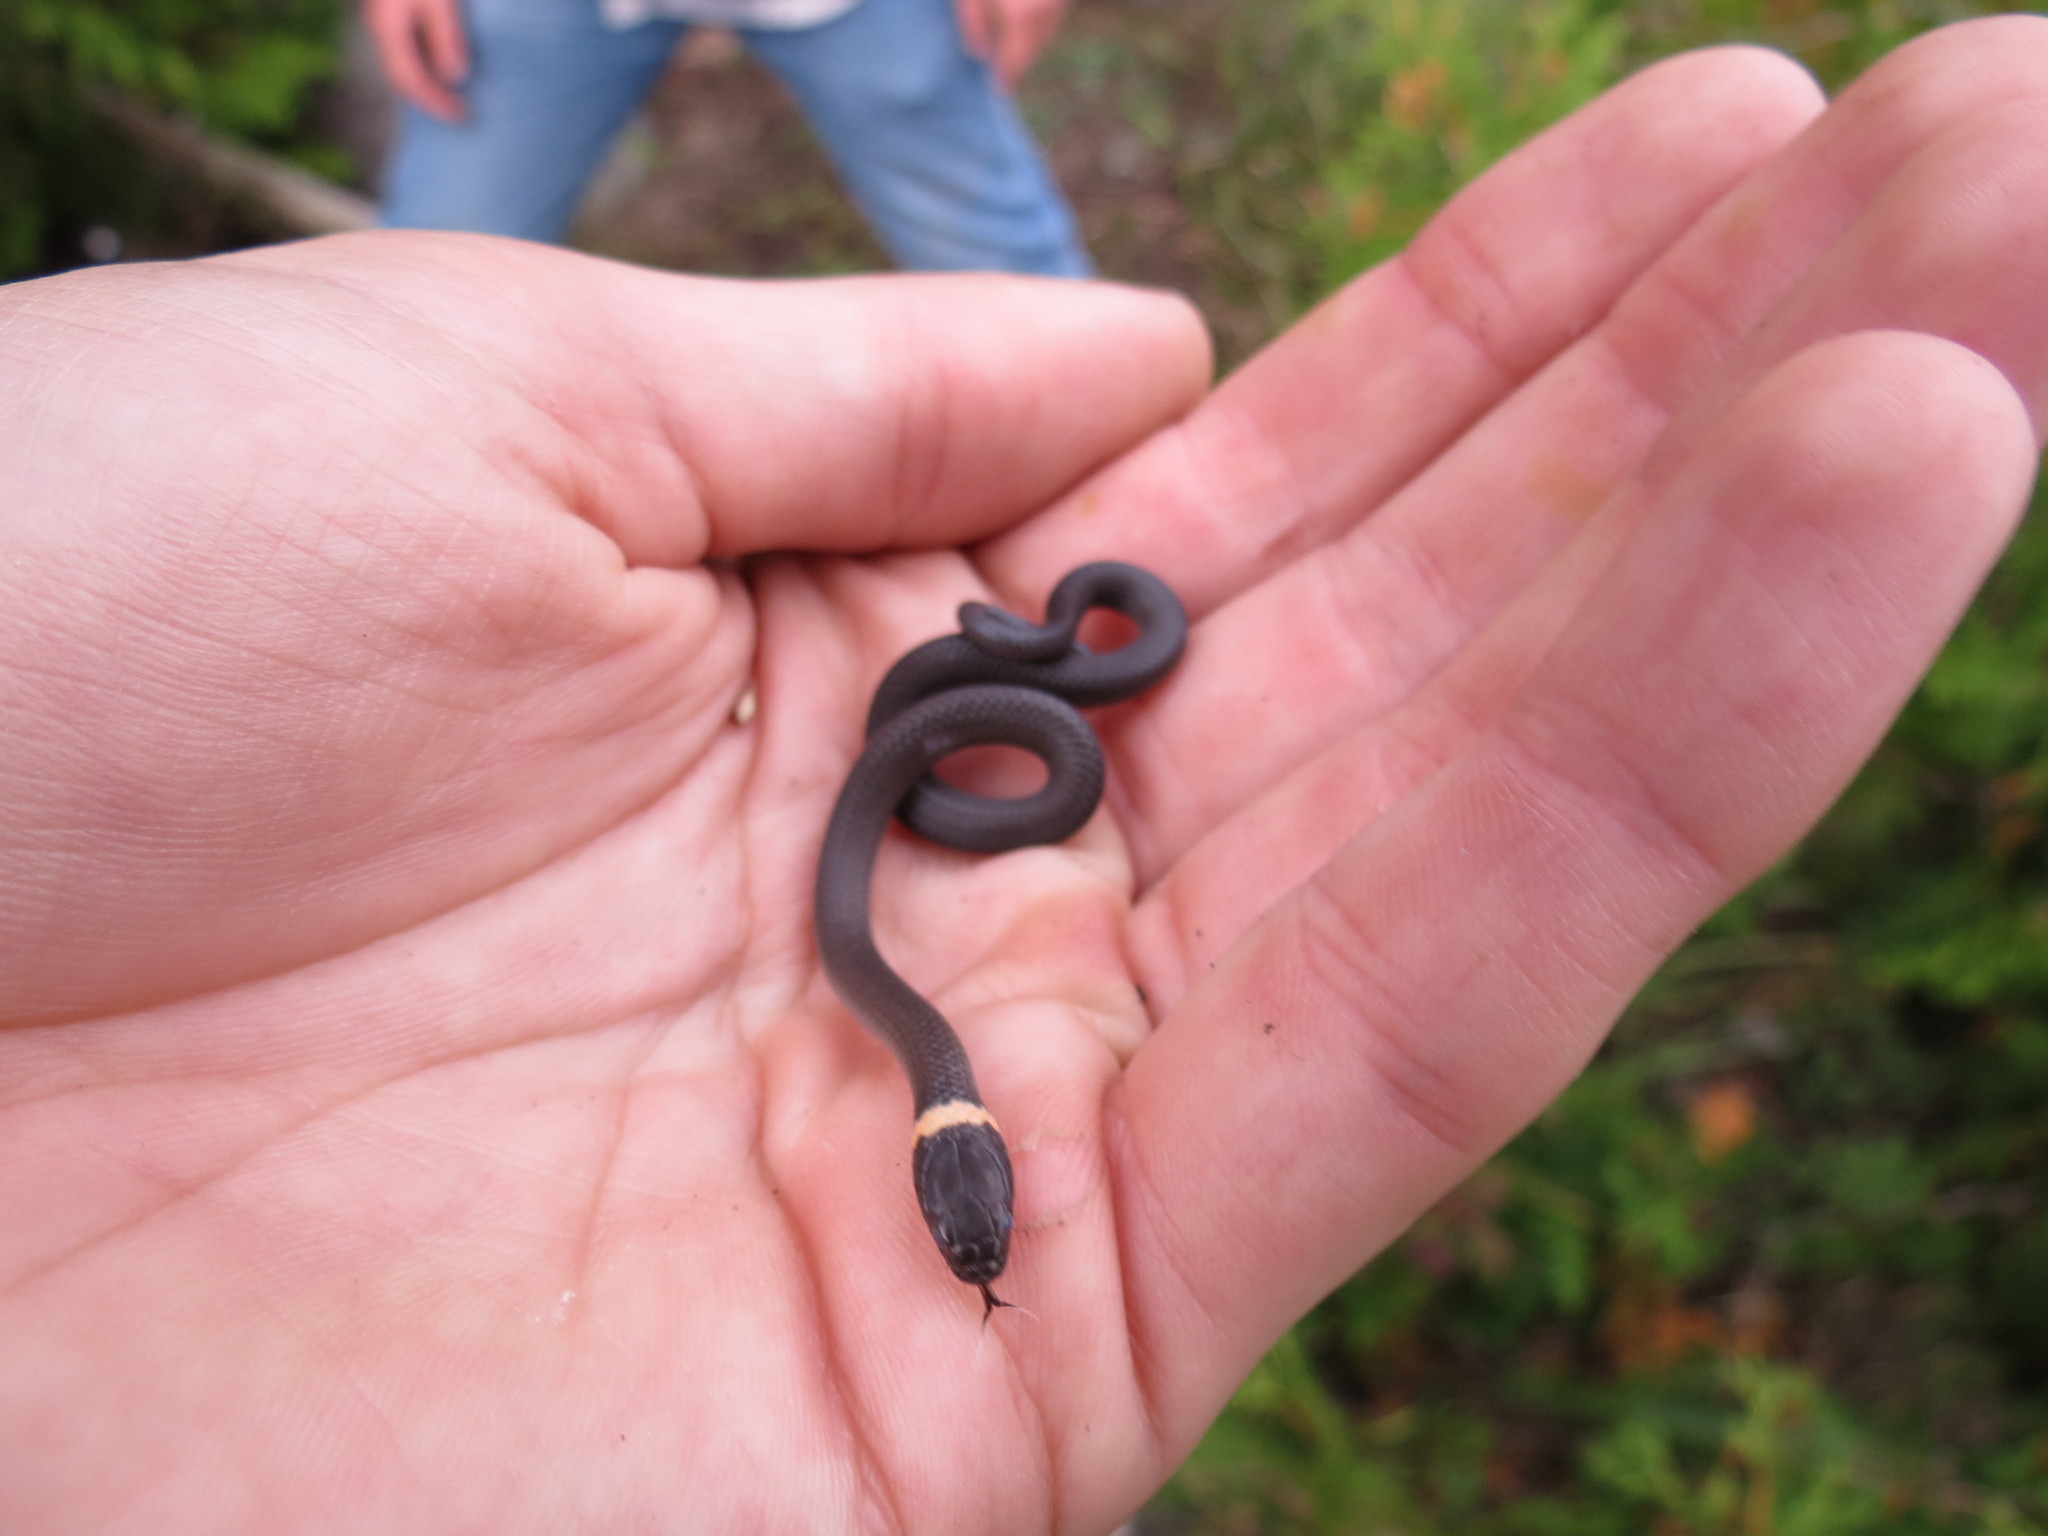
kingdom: Animalia
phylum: Chordata
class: Squamata
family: Colubridae
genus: Diadophis
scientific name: Diadophis punctatus
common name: Ringneck snake
